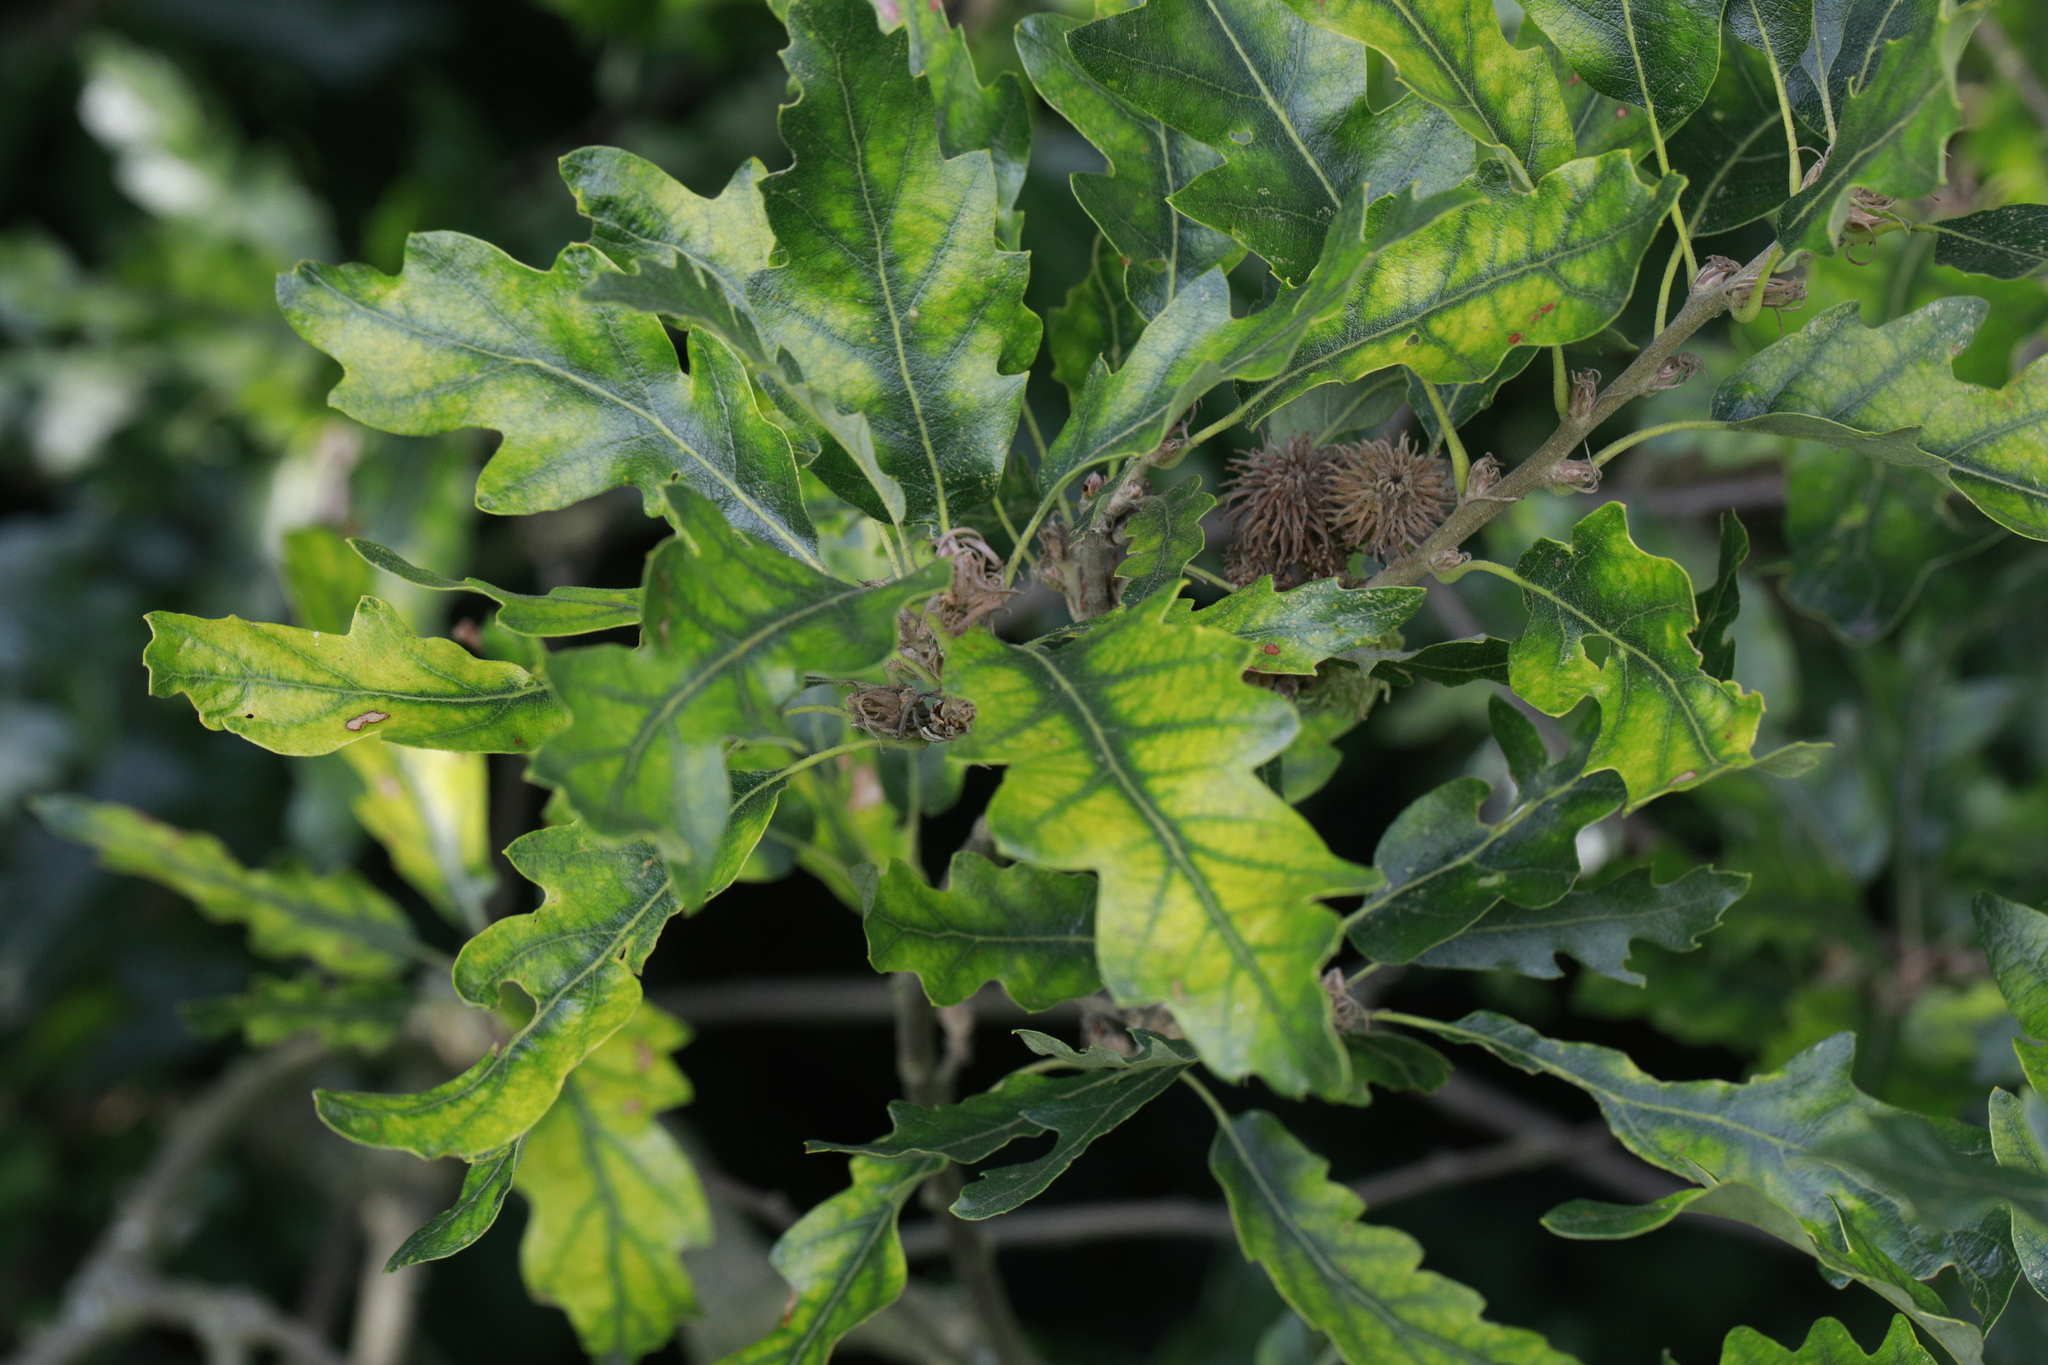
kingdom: Plantae
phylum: Tracheophyta
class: Magnoliopsida
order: Fagales
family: Fagaceae
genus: Quercus
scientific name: Quercus cerris
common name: Turkey oak
